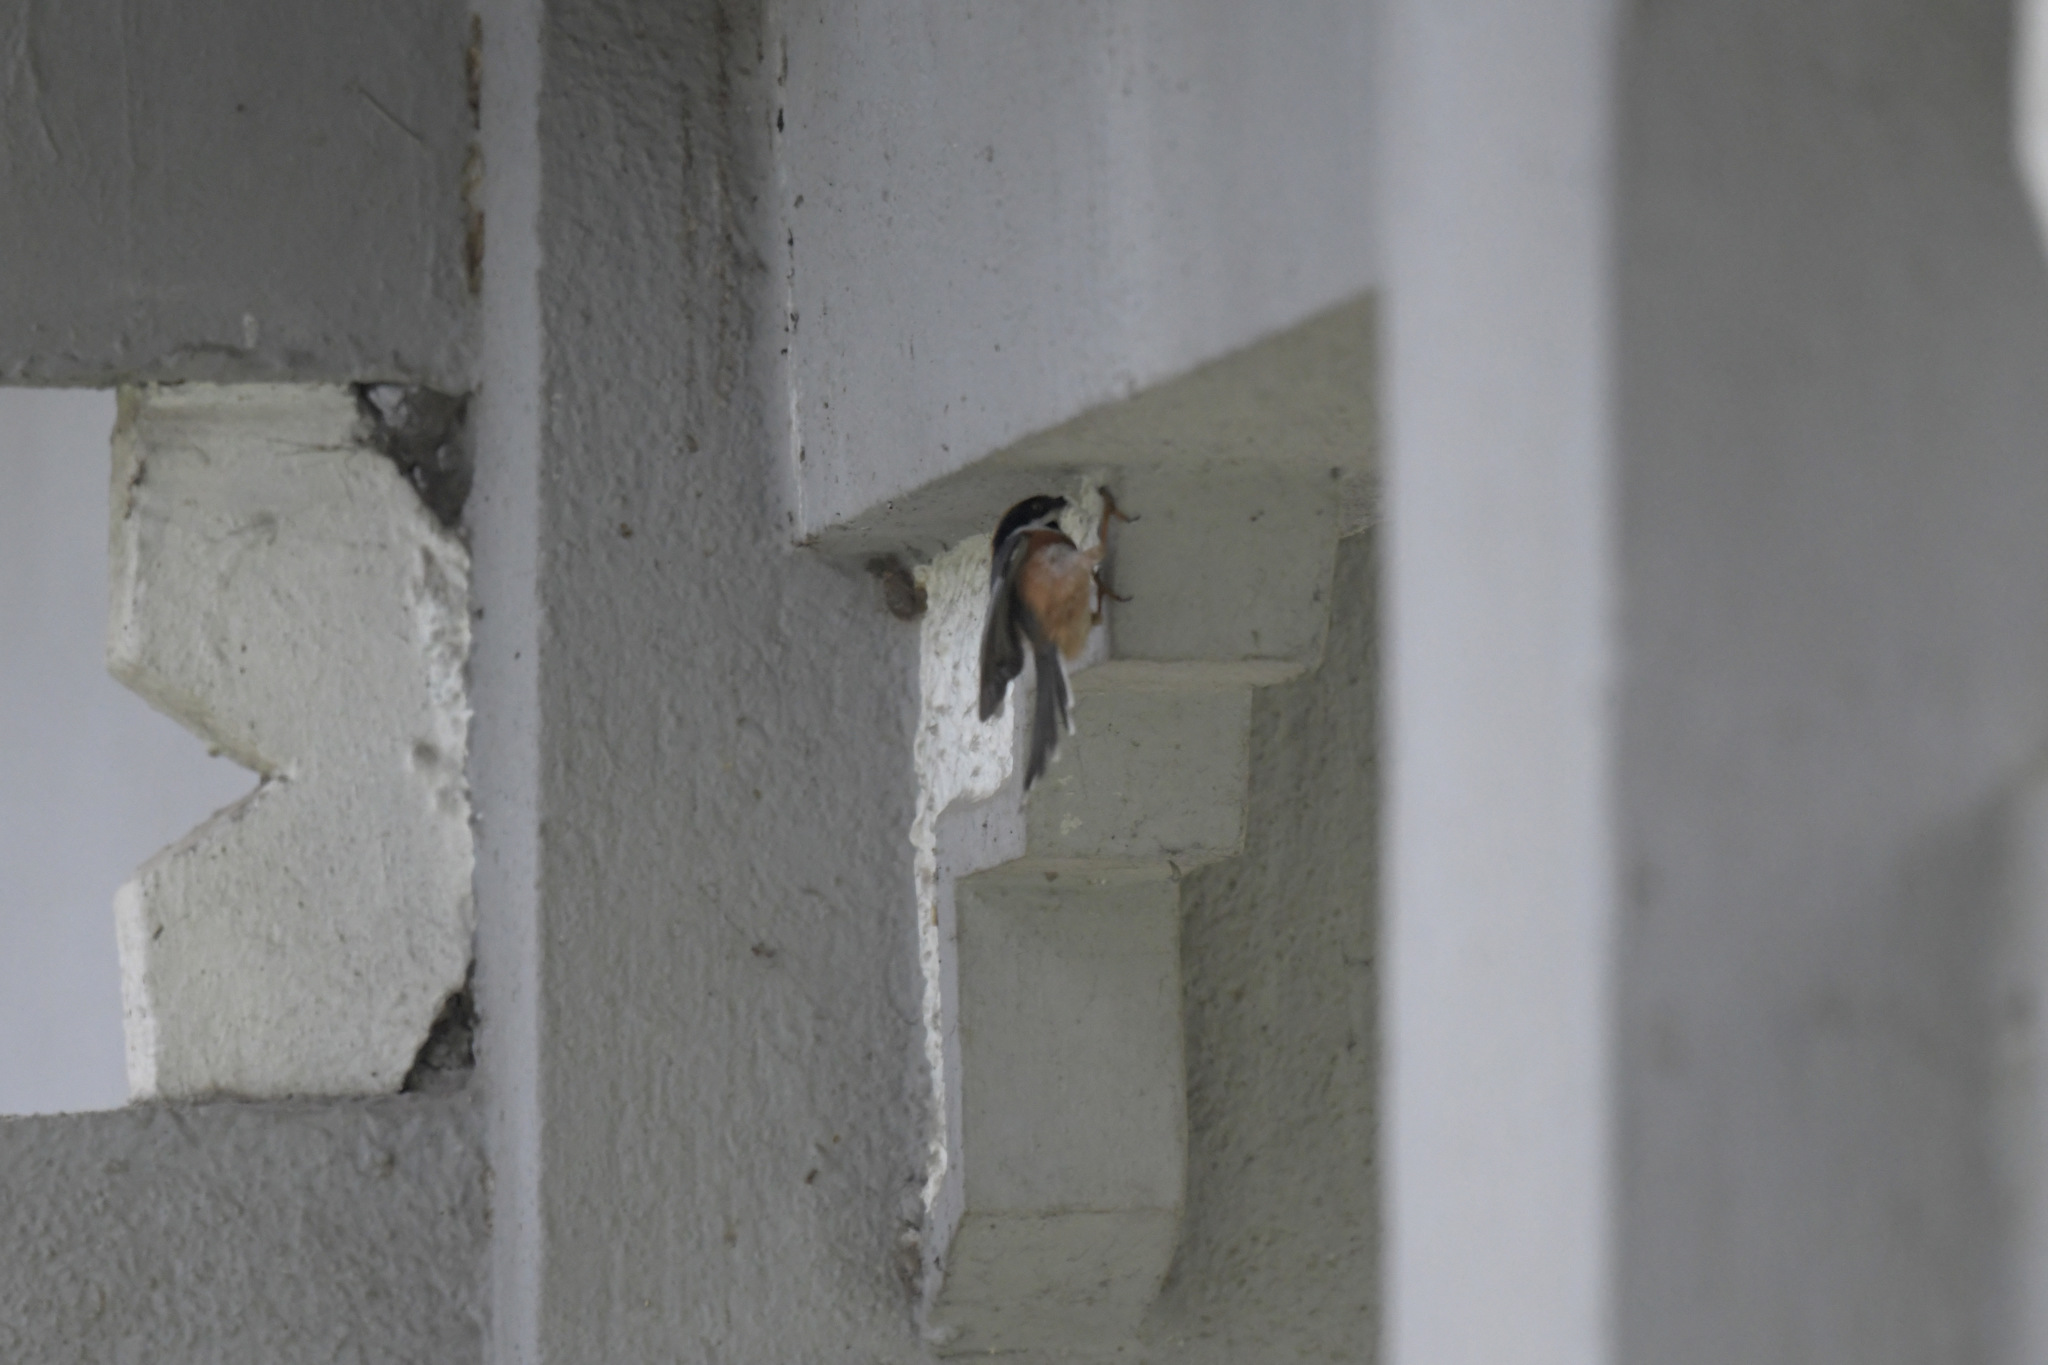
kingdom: Animalia
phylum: Chordata
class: Aves
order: Passeriformes
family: Aegithalidae
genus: Aegithalos
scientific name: Aegithalos concinnus
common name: Black-throated bushtit
